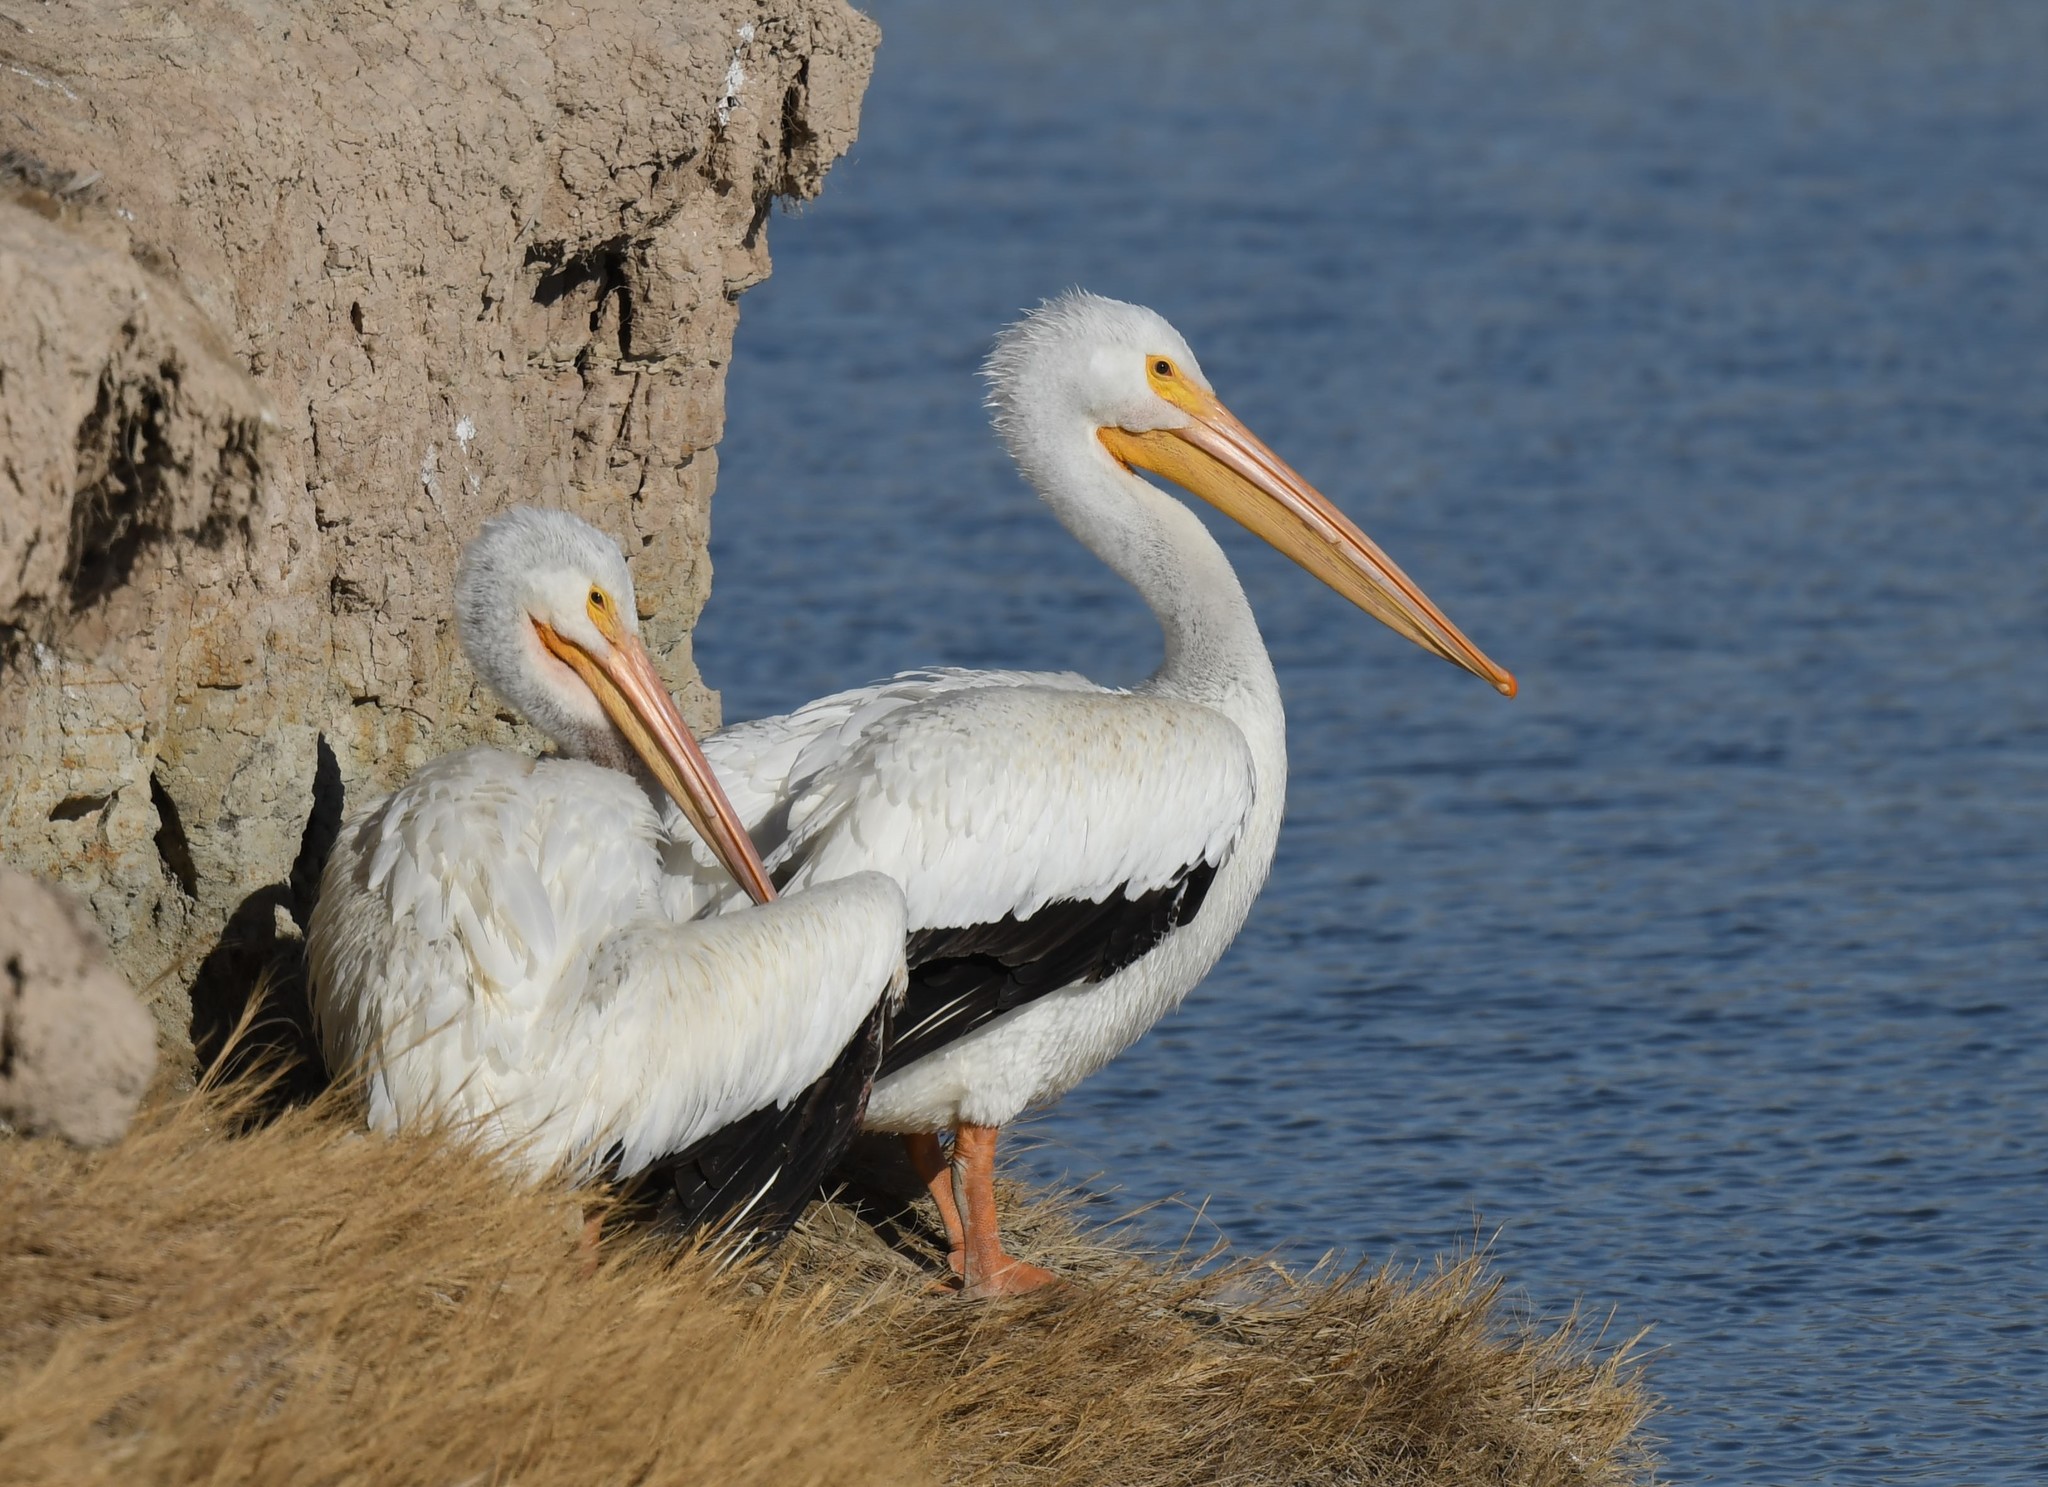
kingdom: Animalia
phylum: Chordata
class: Aves
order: Pelecaniformes
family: Pelecanidae
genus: Pelecanus
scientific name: Pelecanus erythrorhynchos
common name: American white pelican
